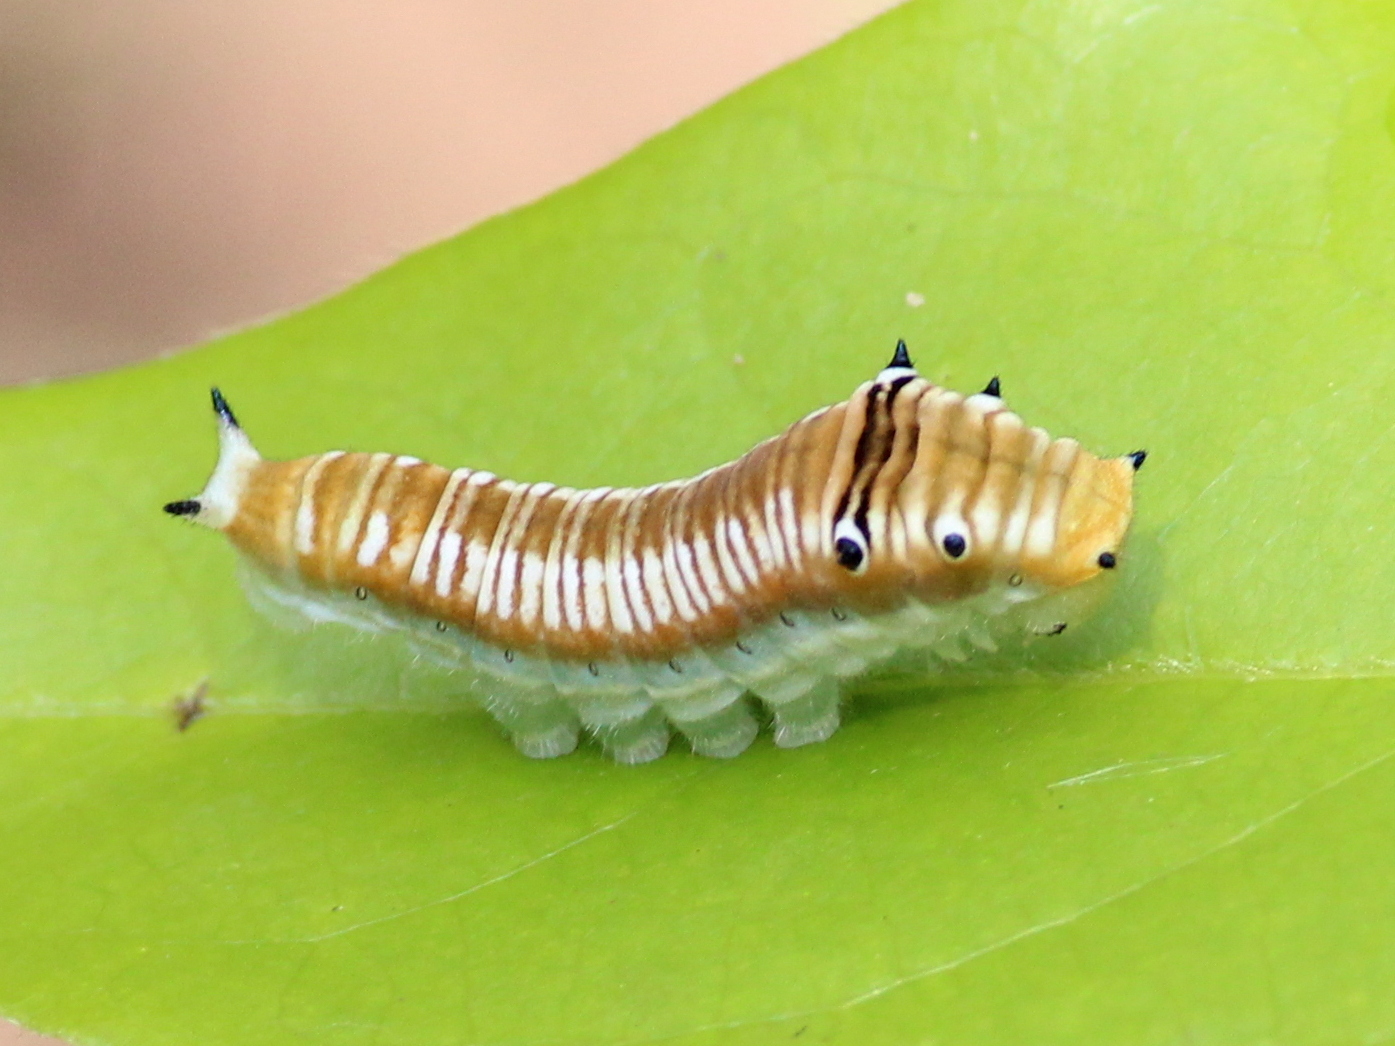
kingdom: Animalia
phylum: Arthropoda
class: Insecta
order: Lepidoptera
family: Papilionidae
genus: Graphium
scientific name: Graphium nomius
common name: Spot swordtail
